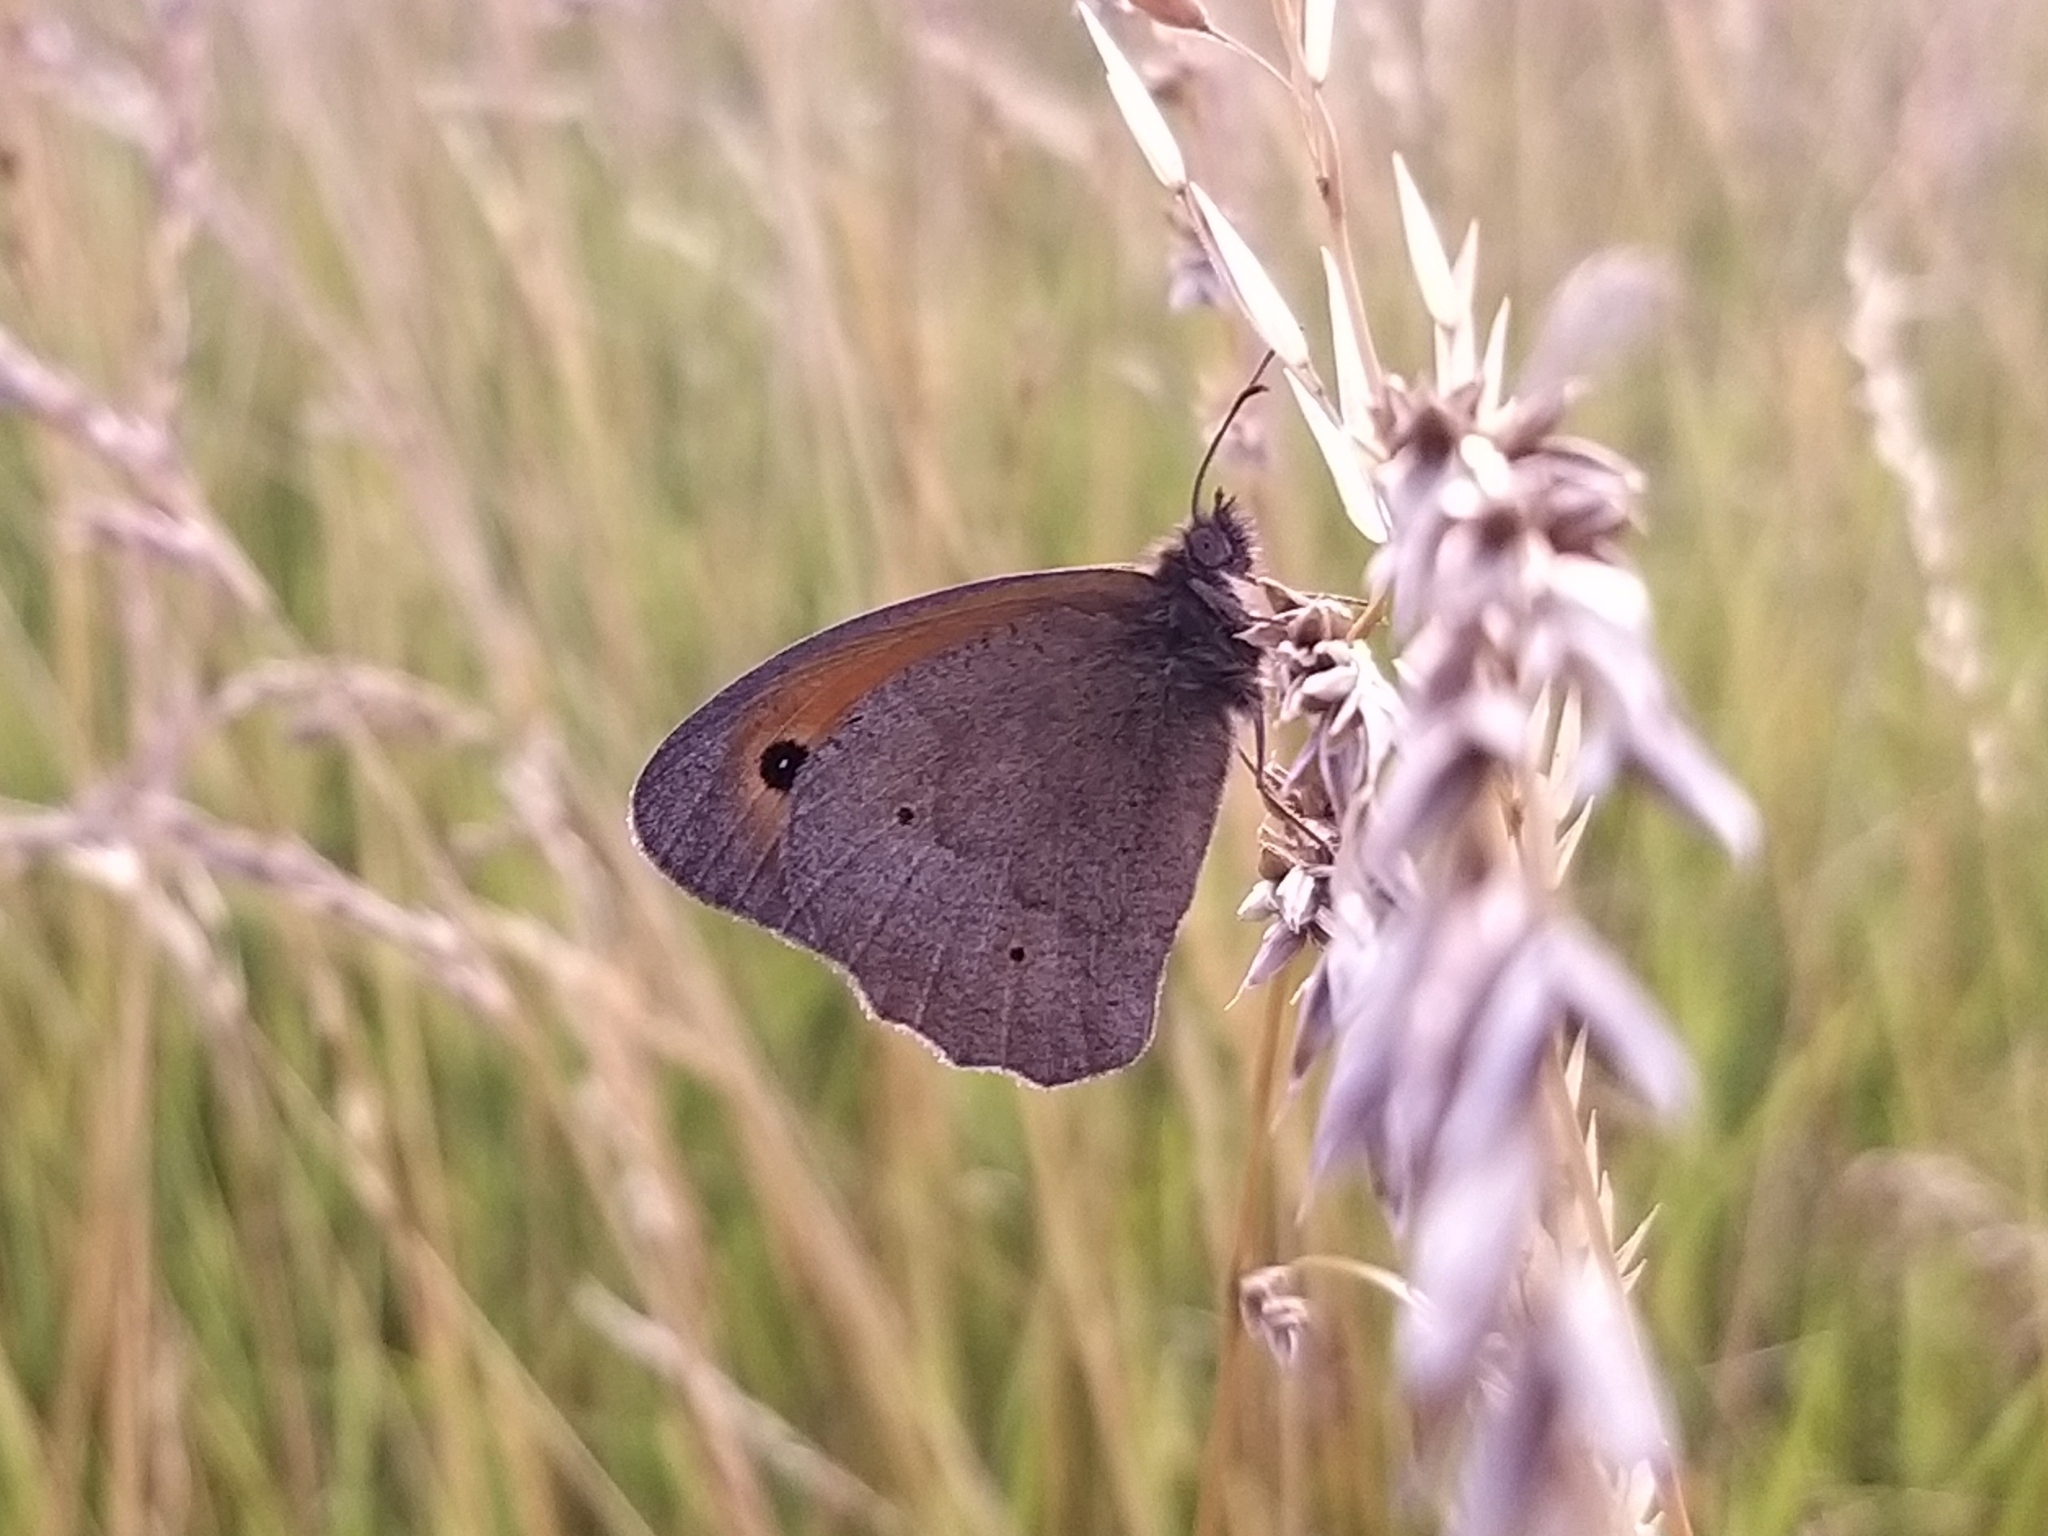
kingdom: Animalia
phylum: Arthropoda
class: Insecta
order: Lepidoptera
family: Nymphalidae
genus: Maniola
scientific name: Maniola jurtina
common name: Meadow brown
